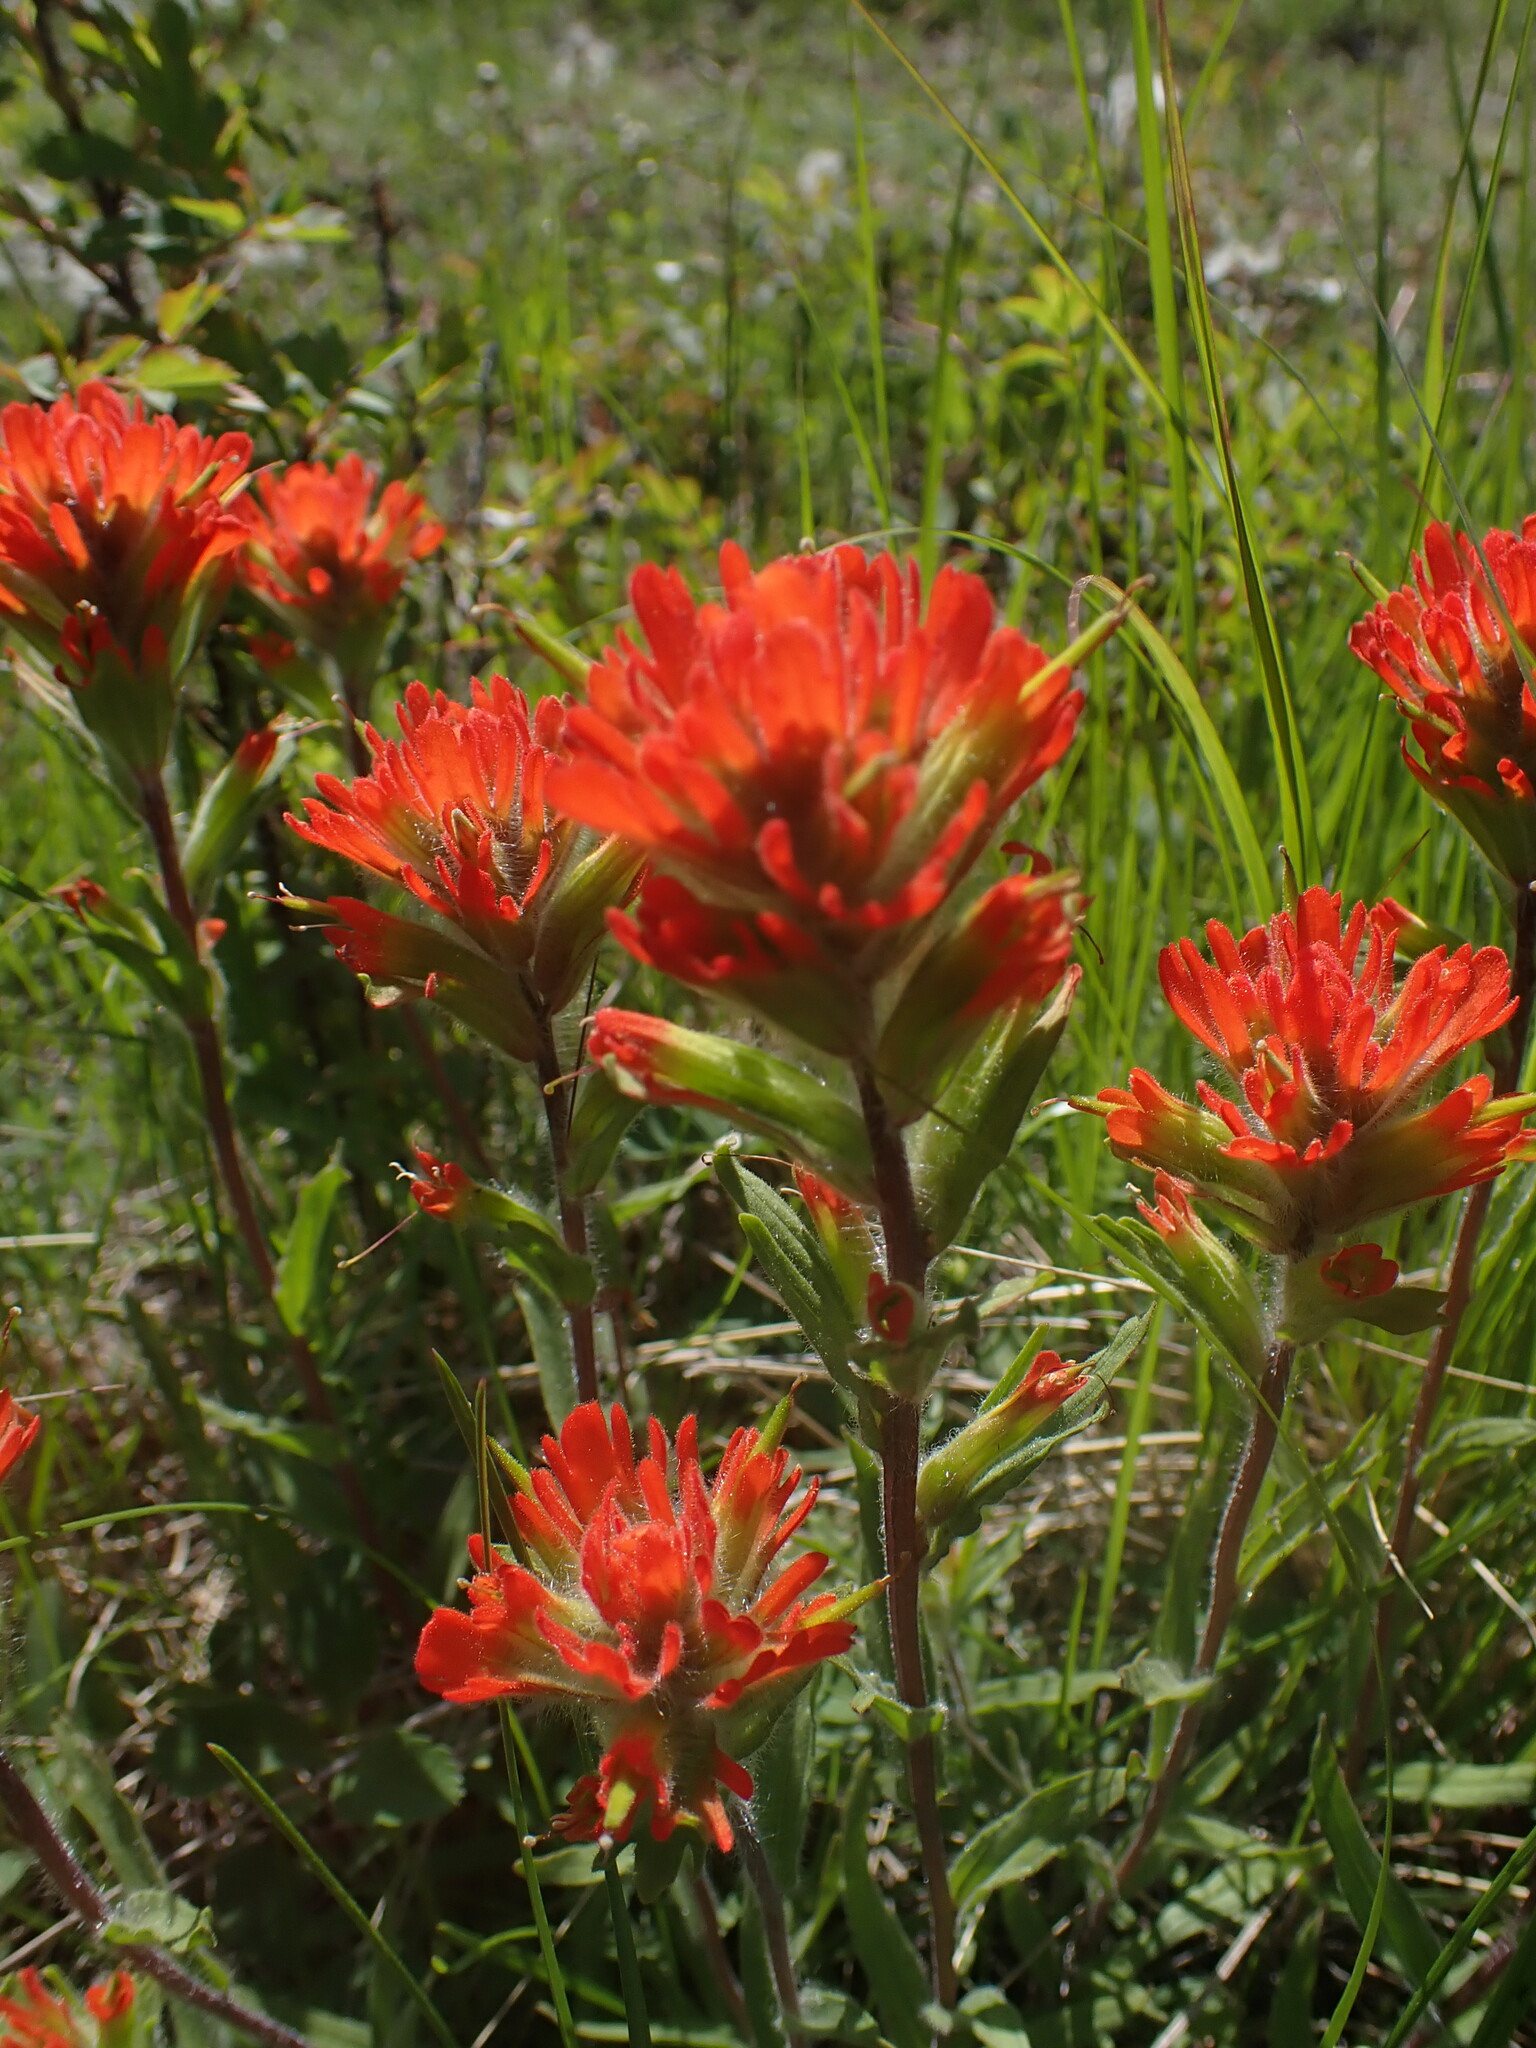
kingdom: Plantae
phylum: Tracheophyta
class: Magnoliopsida
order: Lamiales
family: Orobanchaceae
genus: Castilleja
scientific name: Castilleja hispida
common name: Bristly paintbrush
